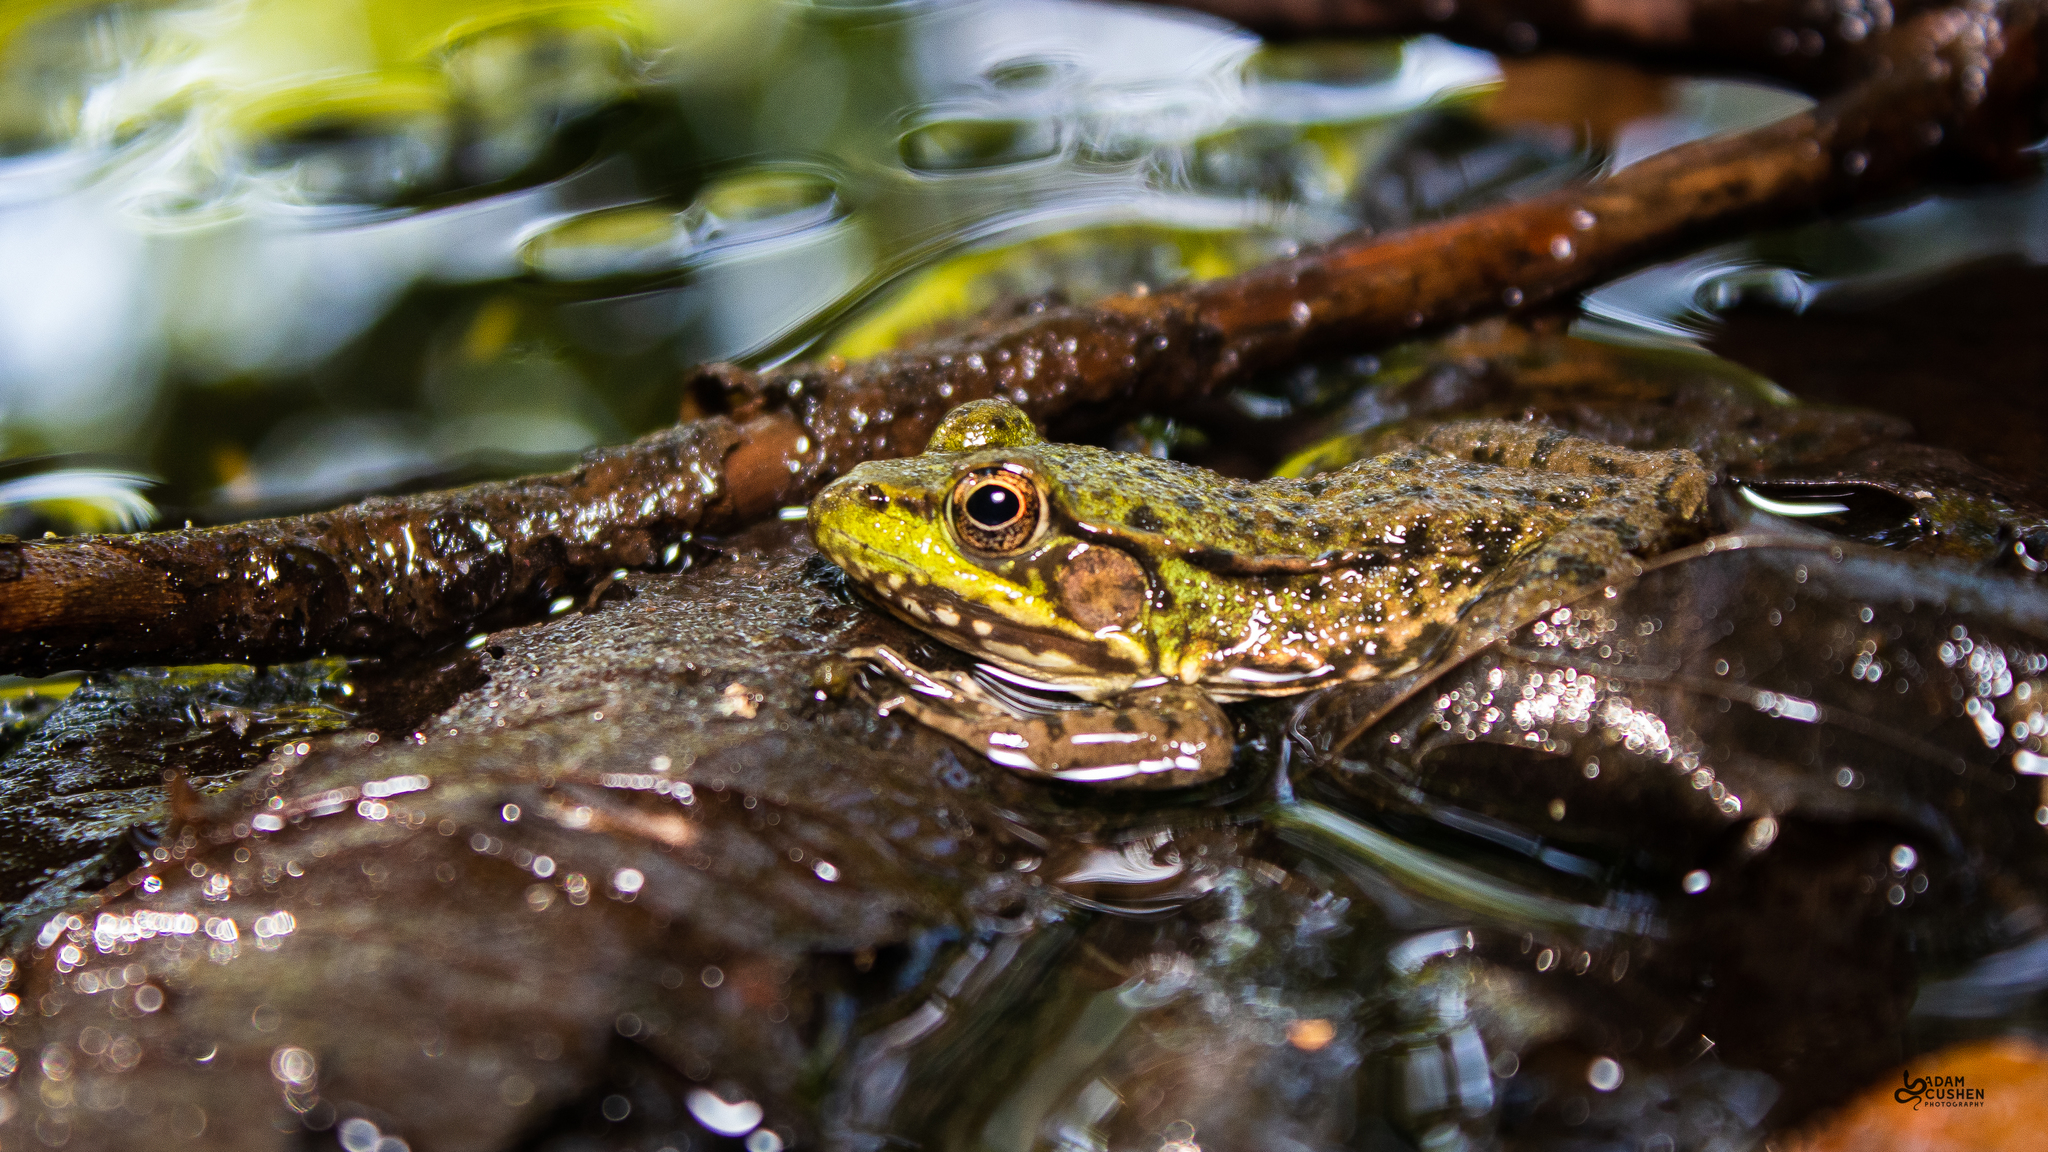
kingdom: Animalia
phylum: Chordata
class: Amphibia
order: Anura
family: Ranidae
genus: Lithobates
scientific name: Lithobates clamitans
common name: Green frog
